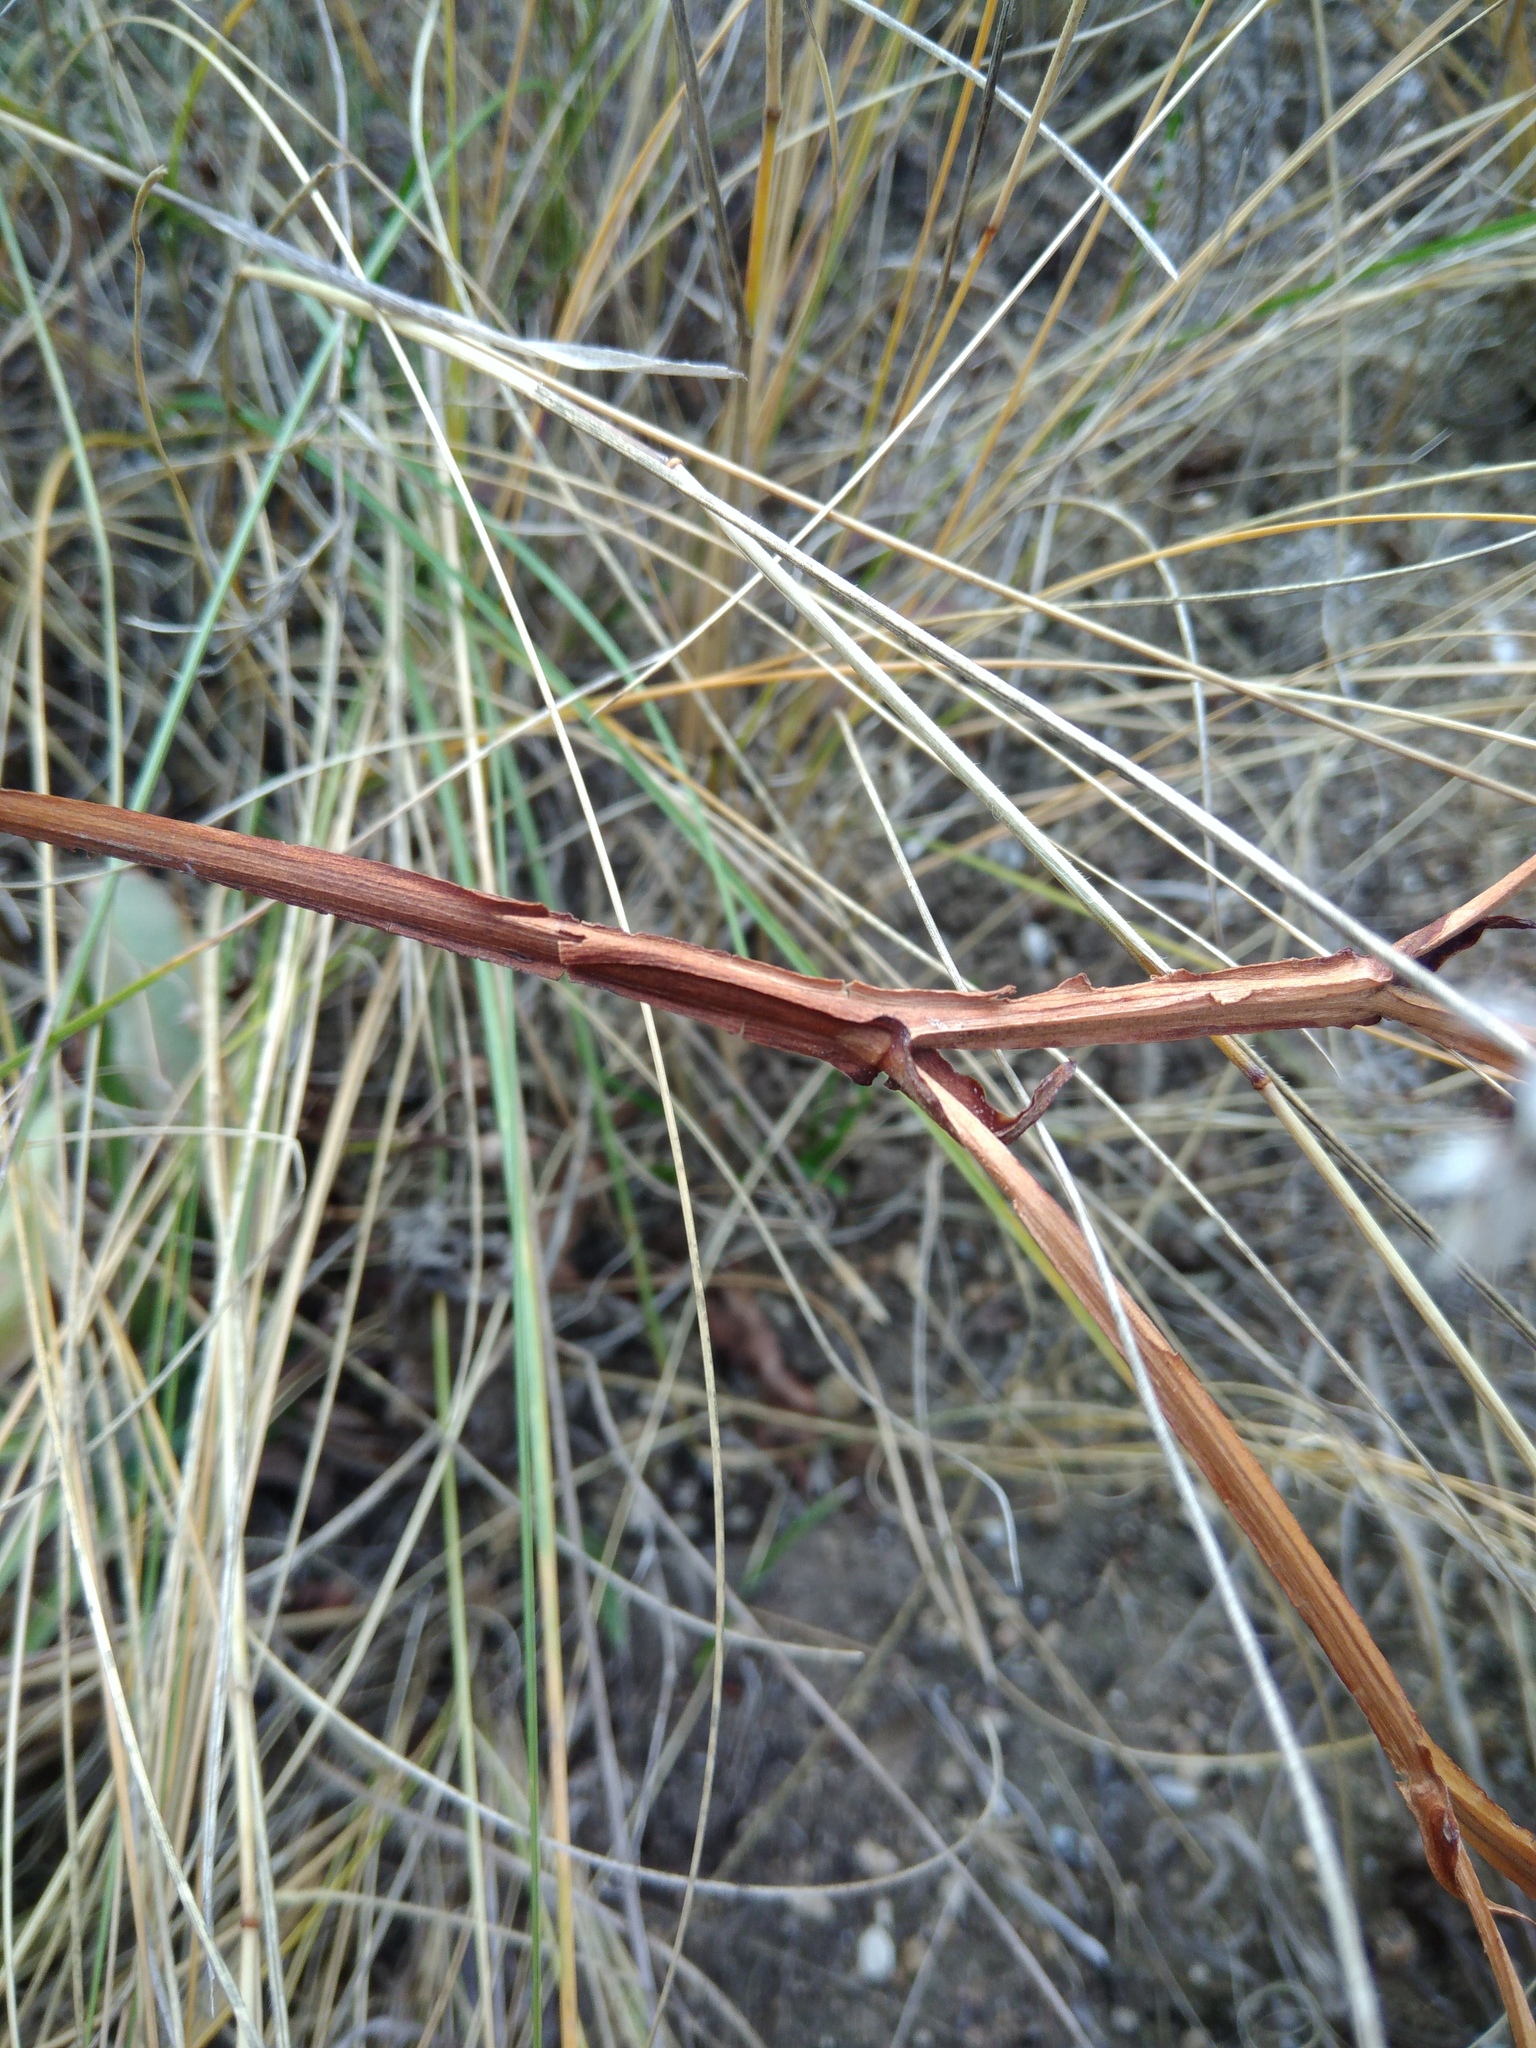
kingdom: Plantae
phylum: Tracheophyta
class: Magnoliopsida
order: Caryophyllales
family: Plumbaginaceae
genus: Goniolimon
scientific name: Goniolimon besserianum
